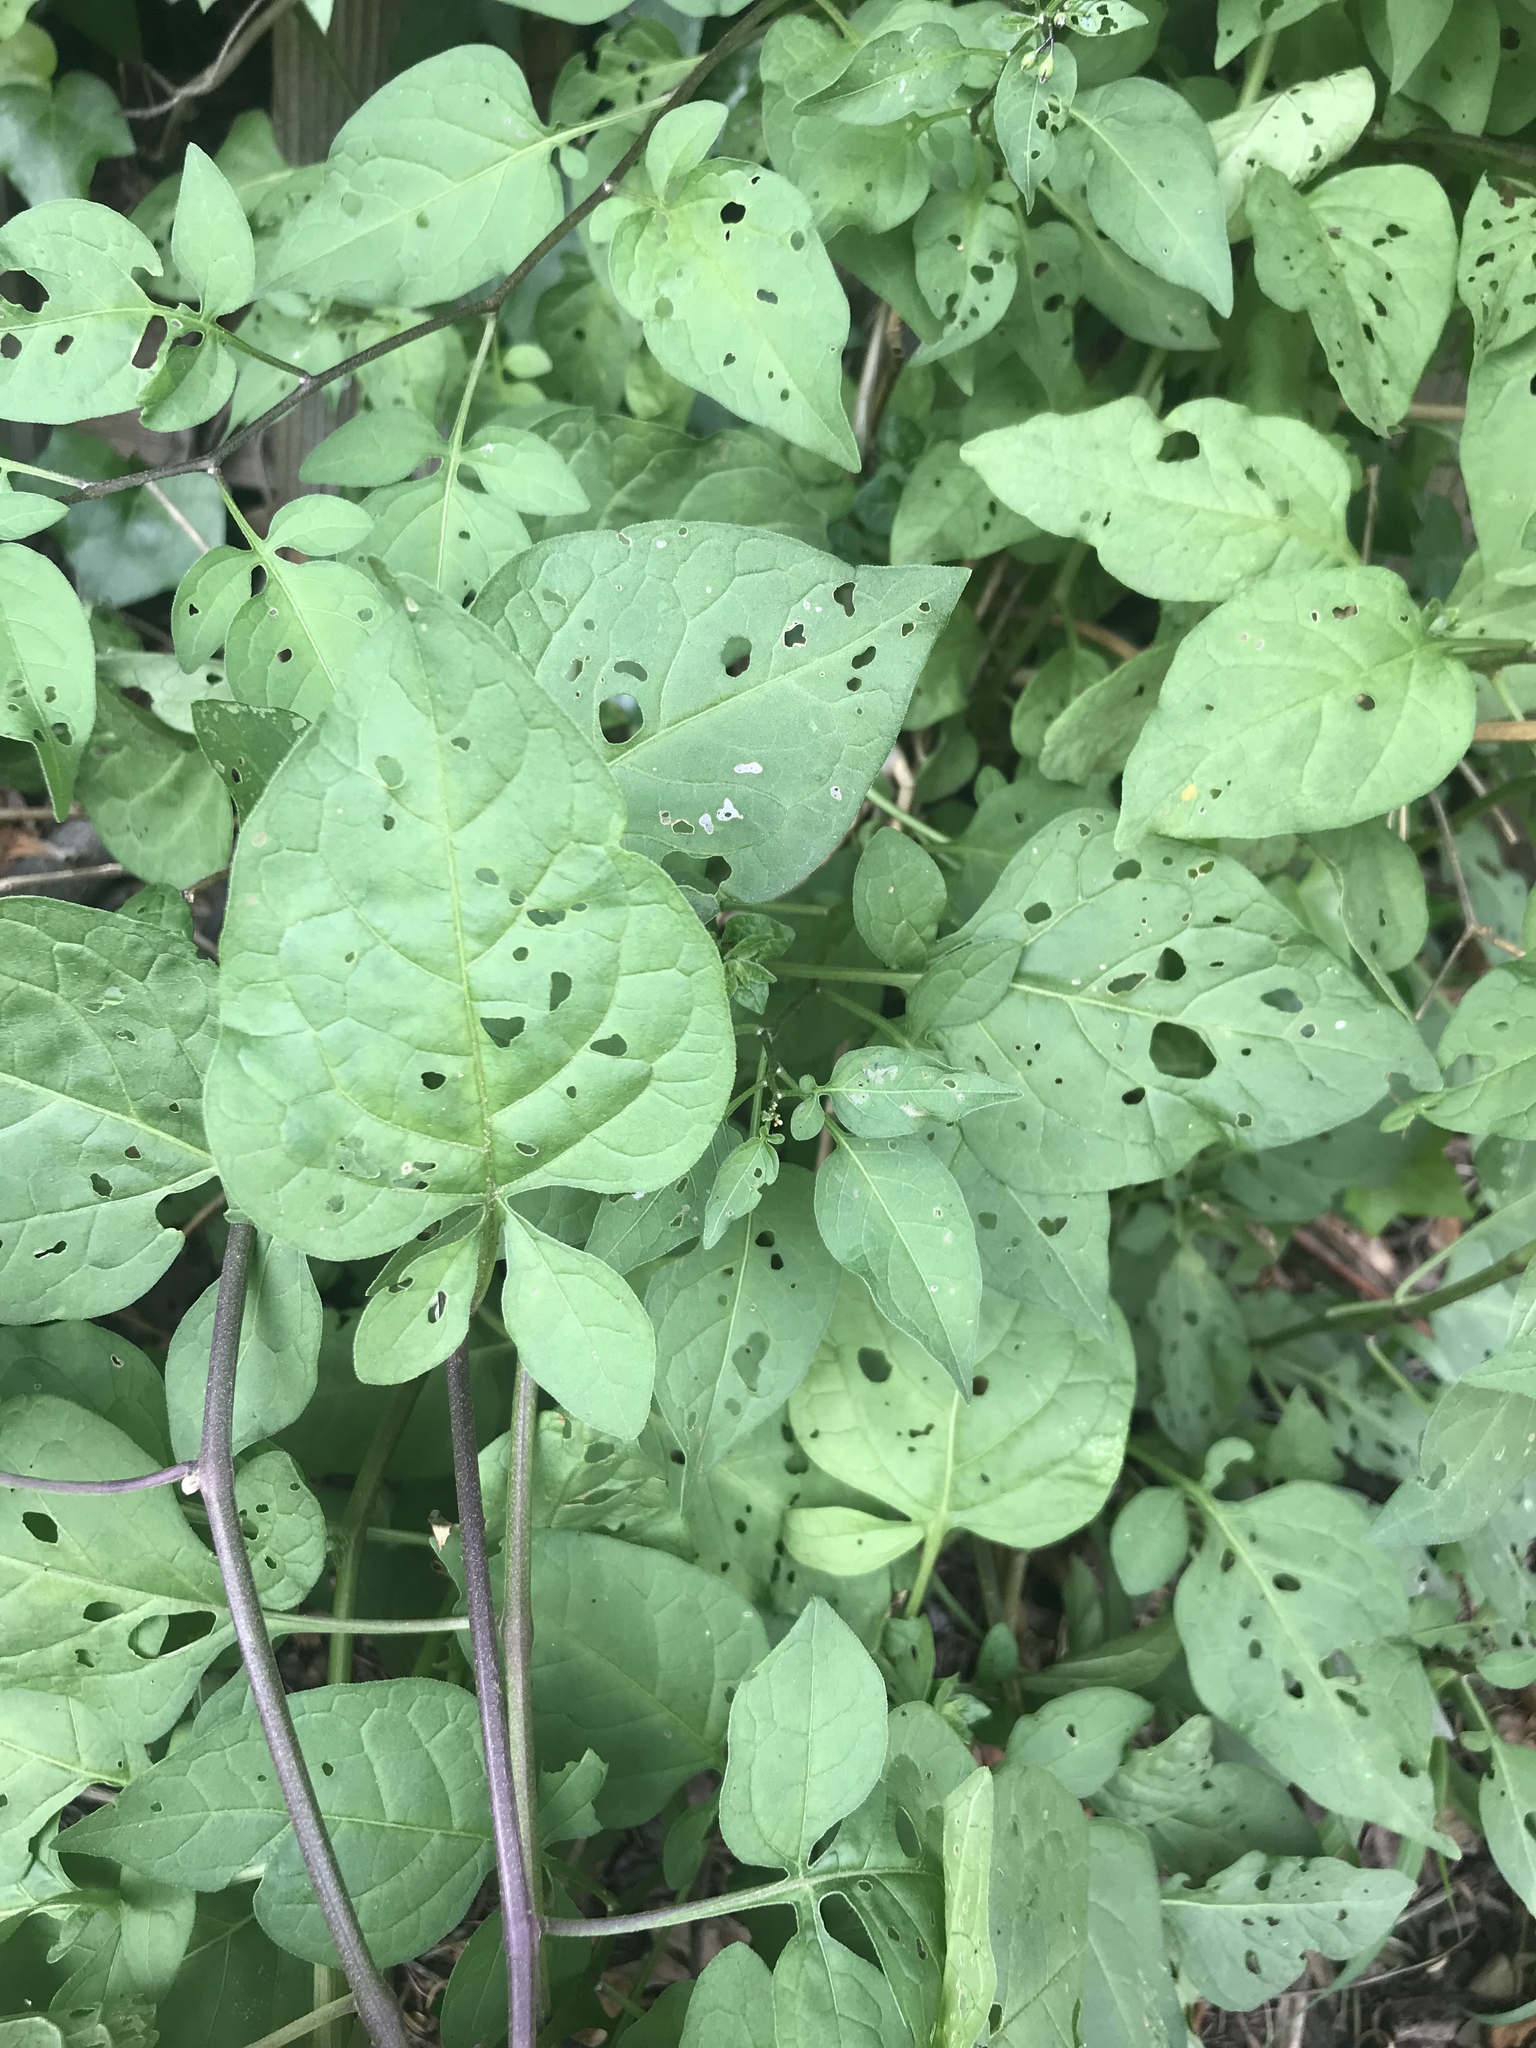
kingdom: Plantae
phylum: Tracheophyta
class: Magnoliopsida
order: Solanales
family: Solanaceae
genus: Solanum
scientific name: Solanum dulcamara
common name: Climbing nightshade
